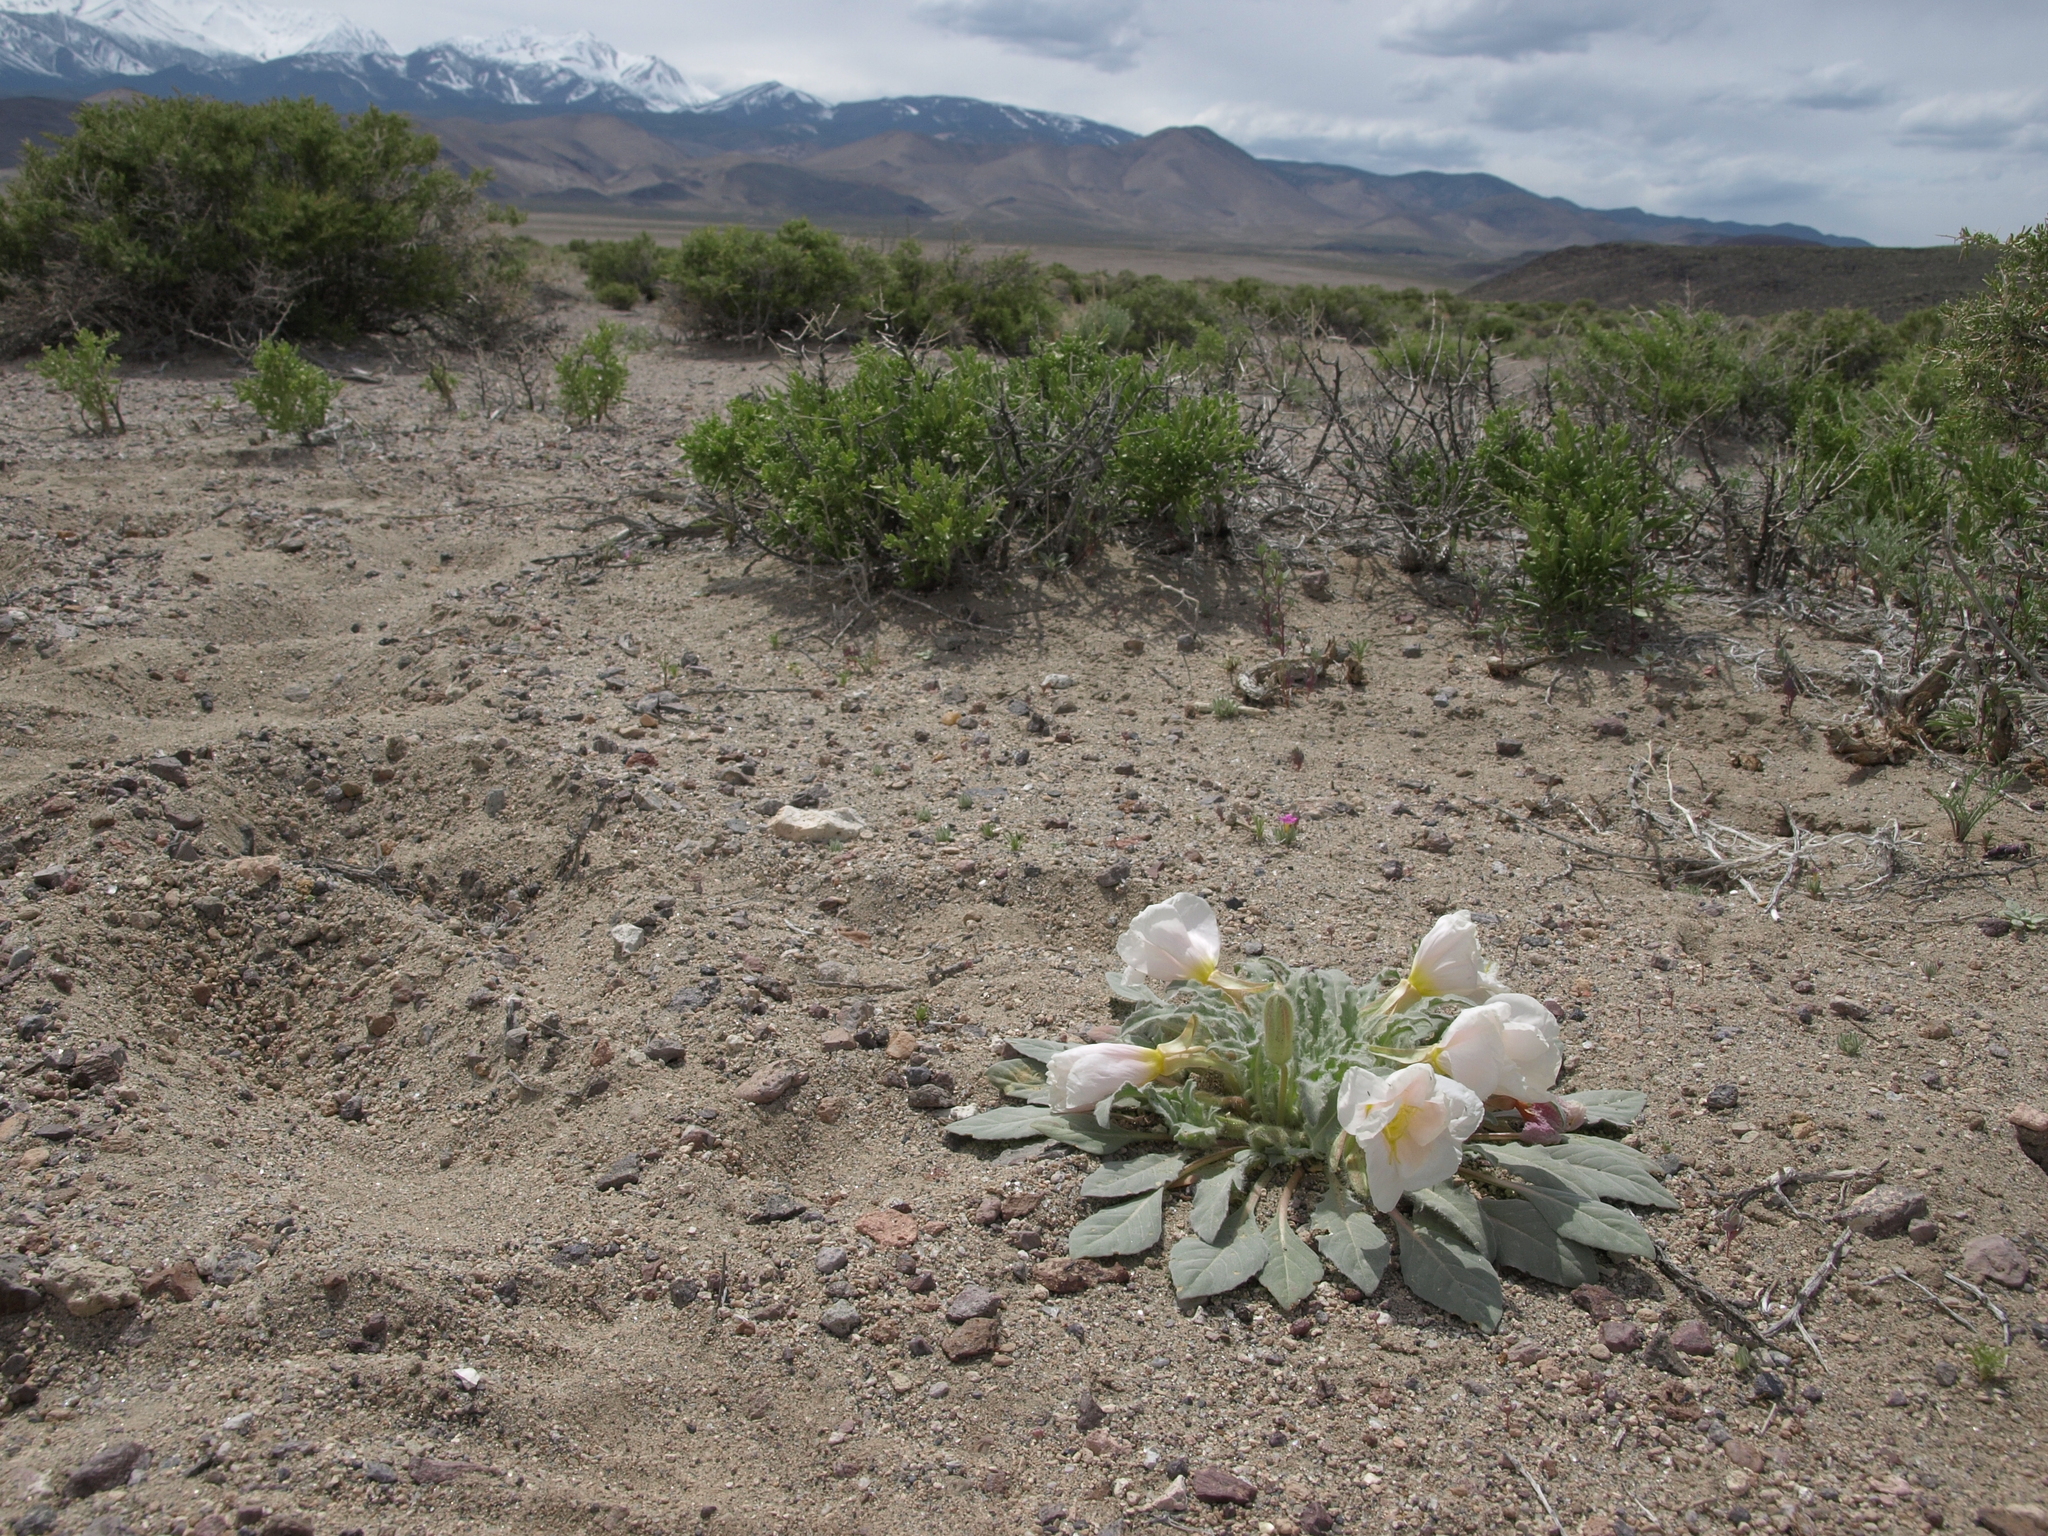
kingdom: Plantae
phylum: Tracheophyta
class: Magnoliopsida
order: Myrtales
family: Onagraceae
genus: Oenothera
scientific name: Oenothera deltoides
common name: Basket evening-primrose
